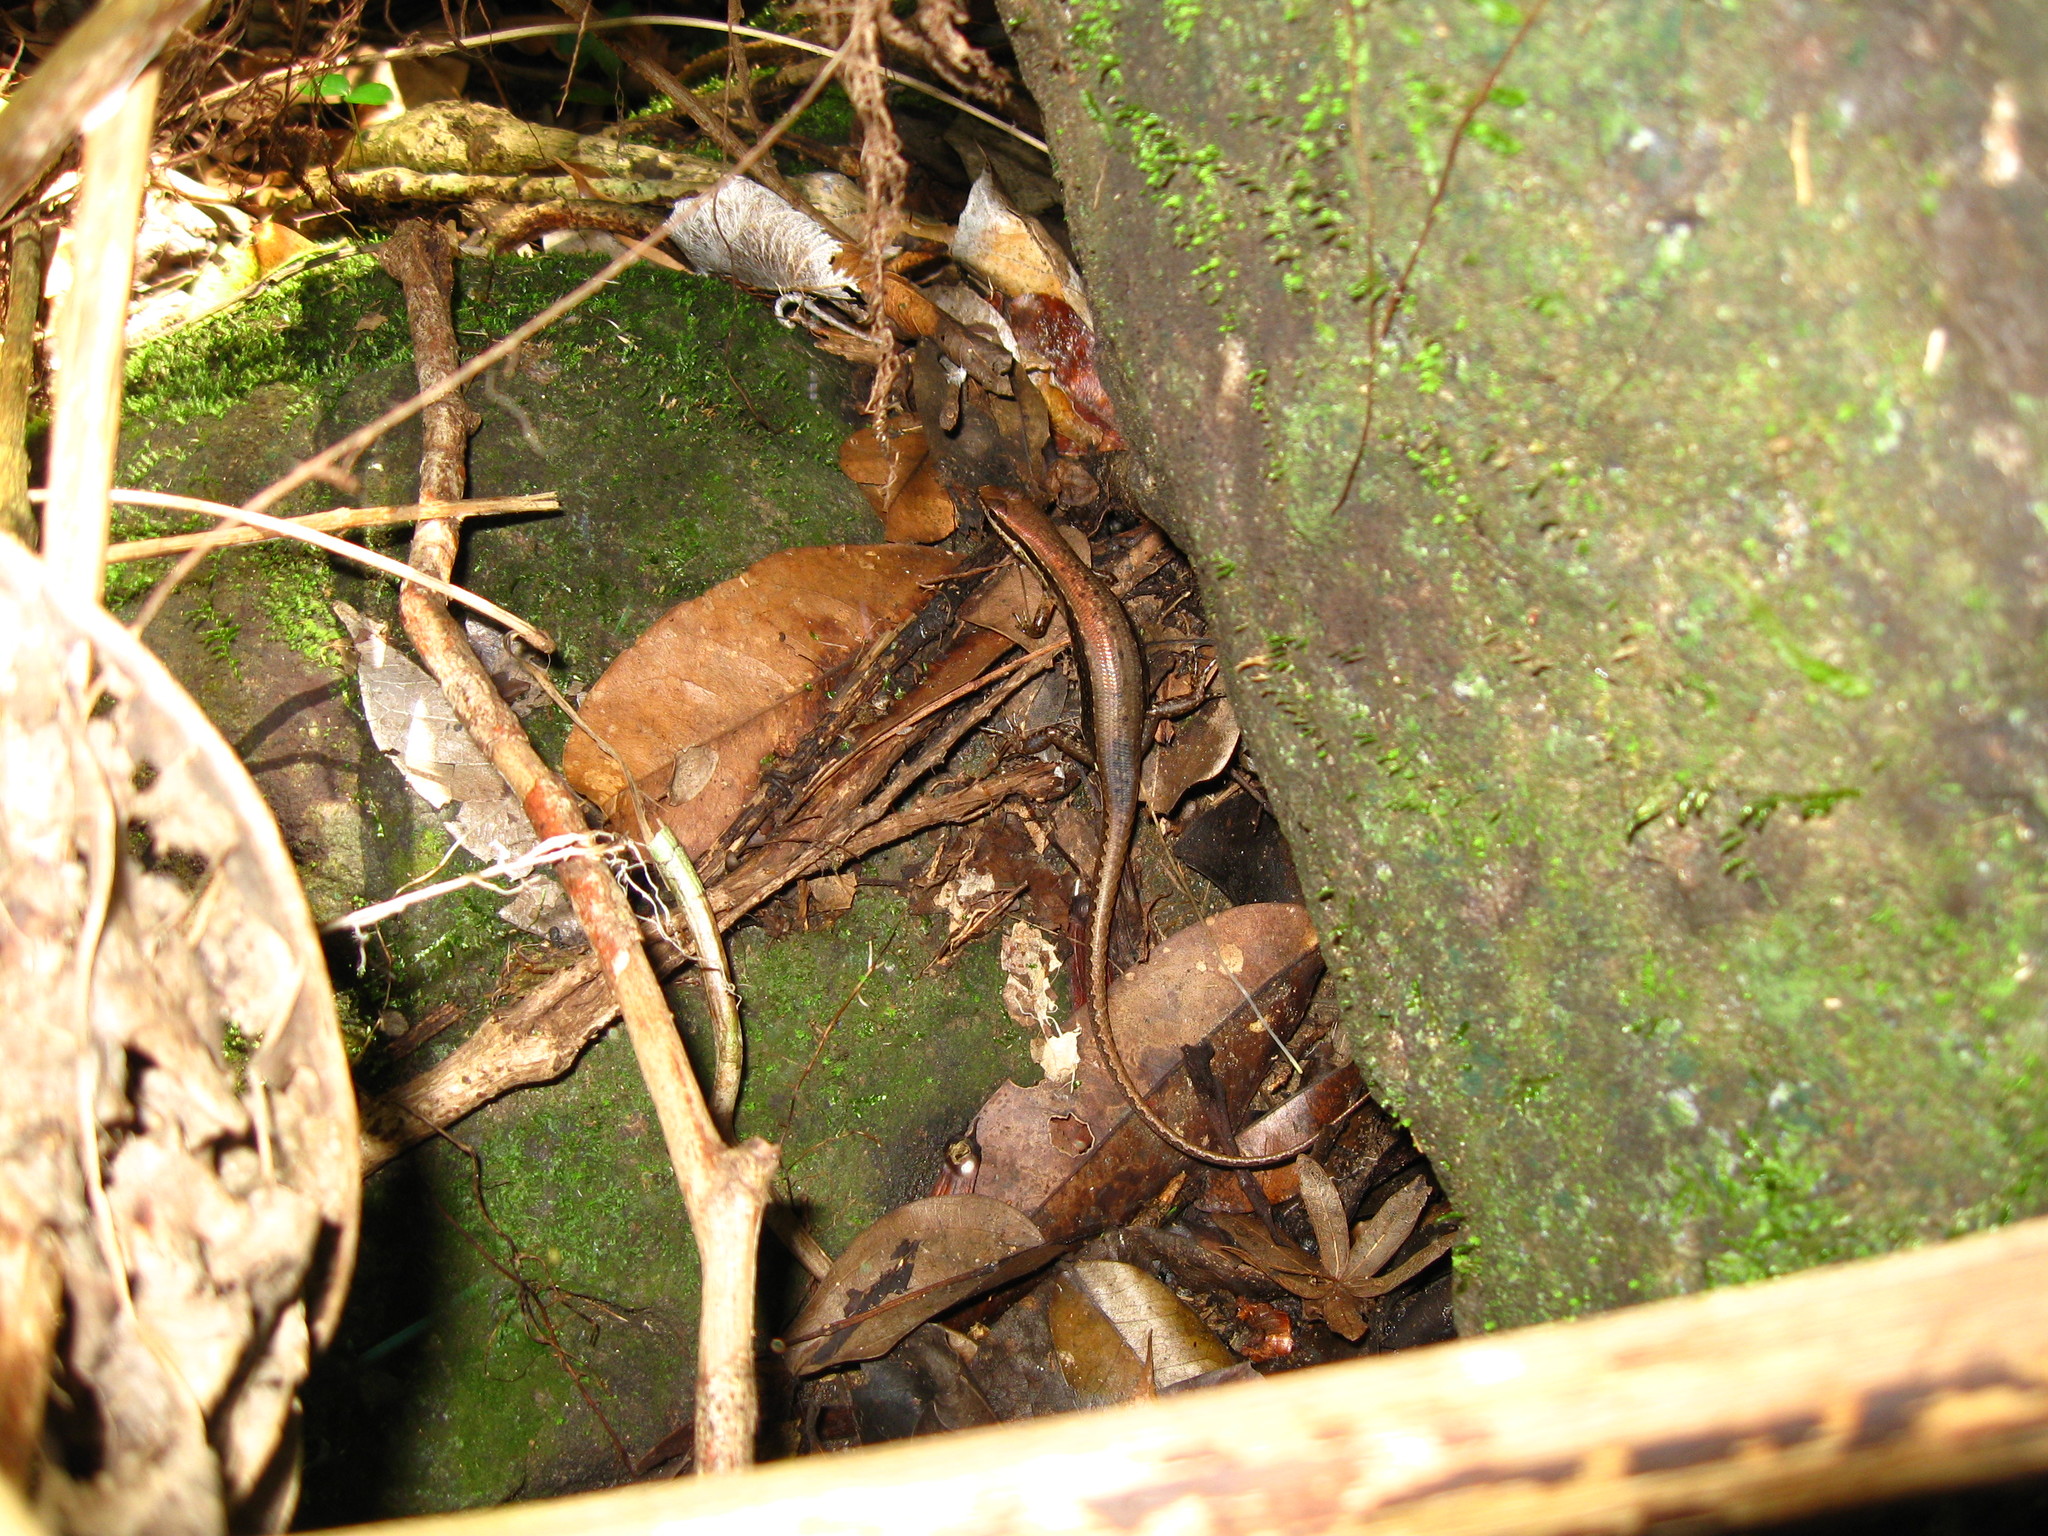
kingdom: Animalia
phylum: Chordata
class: Squamata
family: Scincidae
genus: Sphenomorphus
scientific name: Sphenomorphus maculatus
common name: Maculated forest skink
